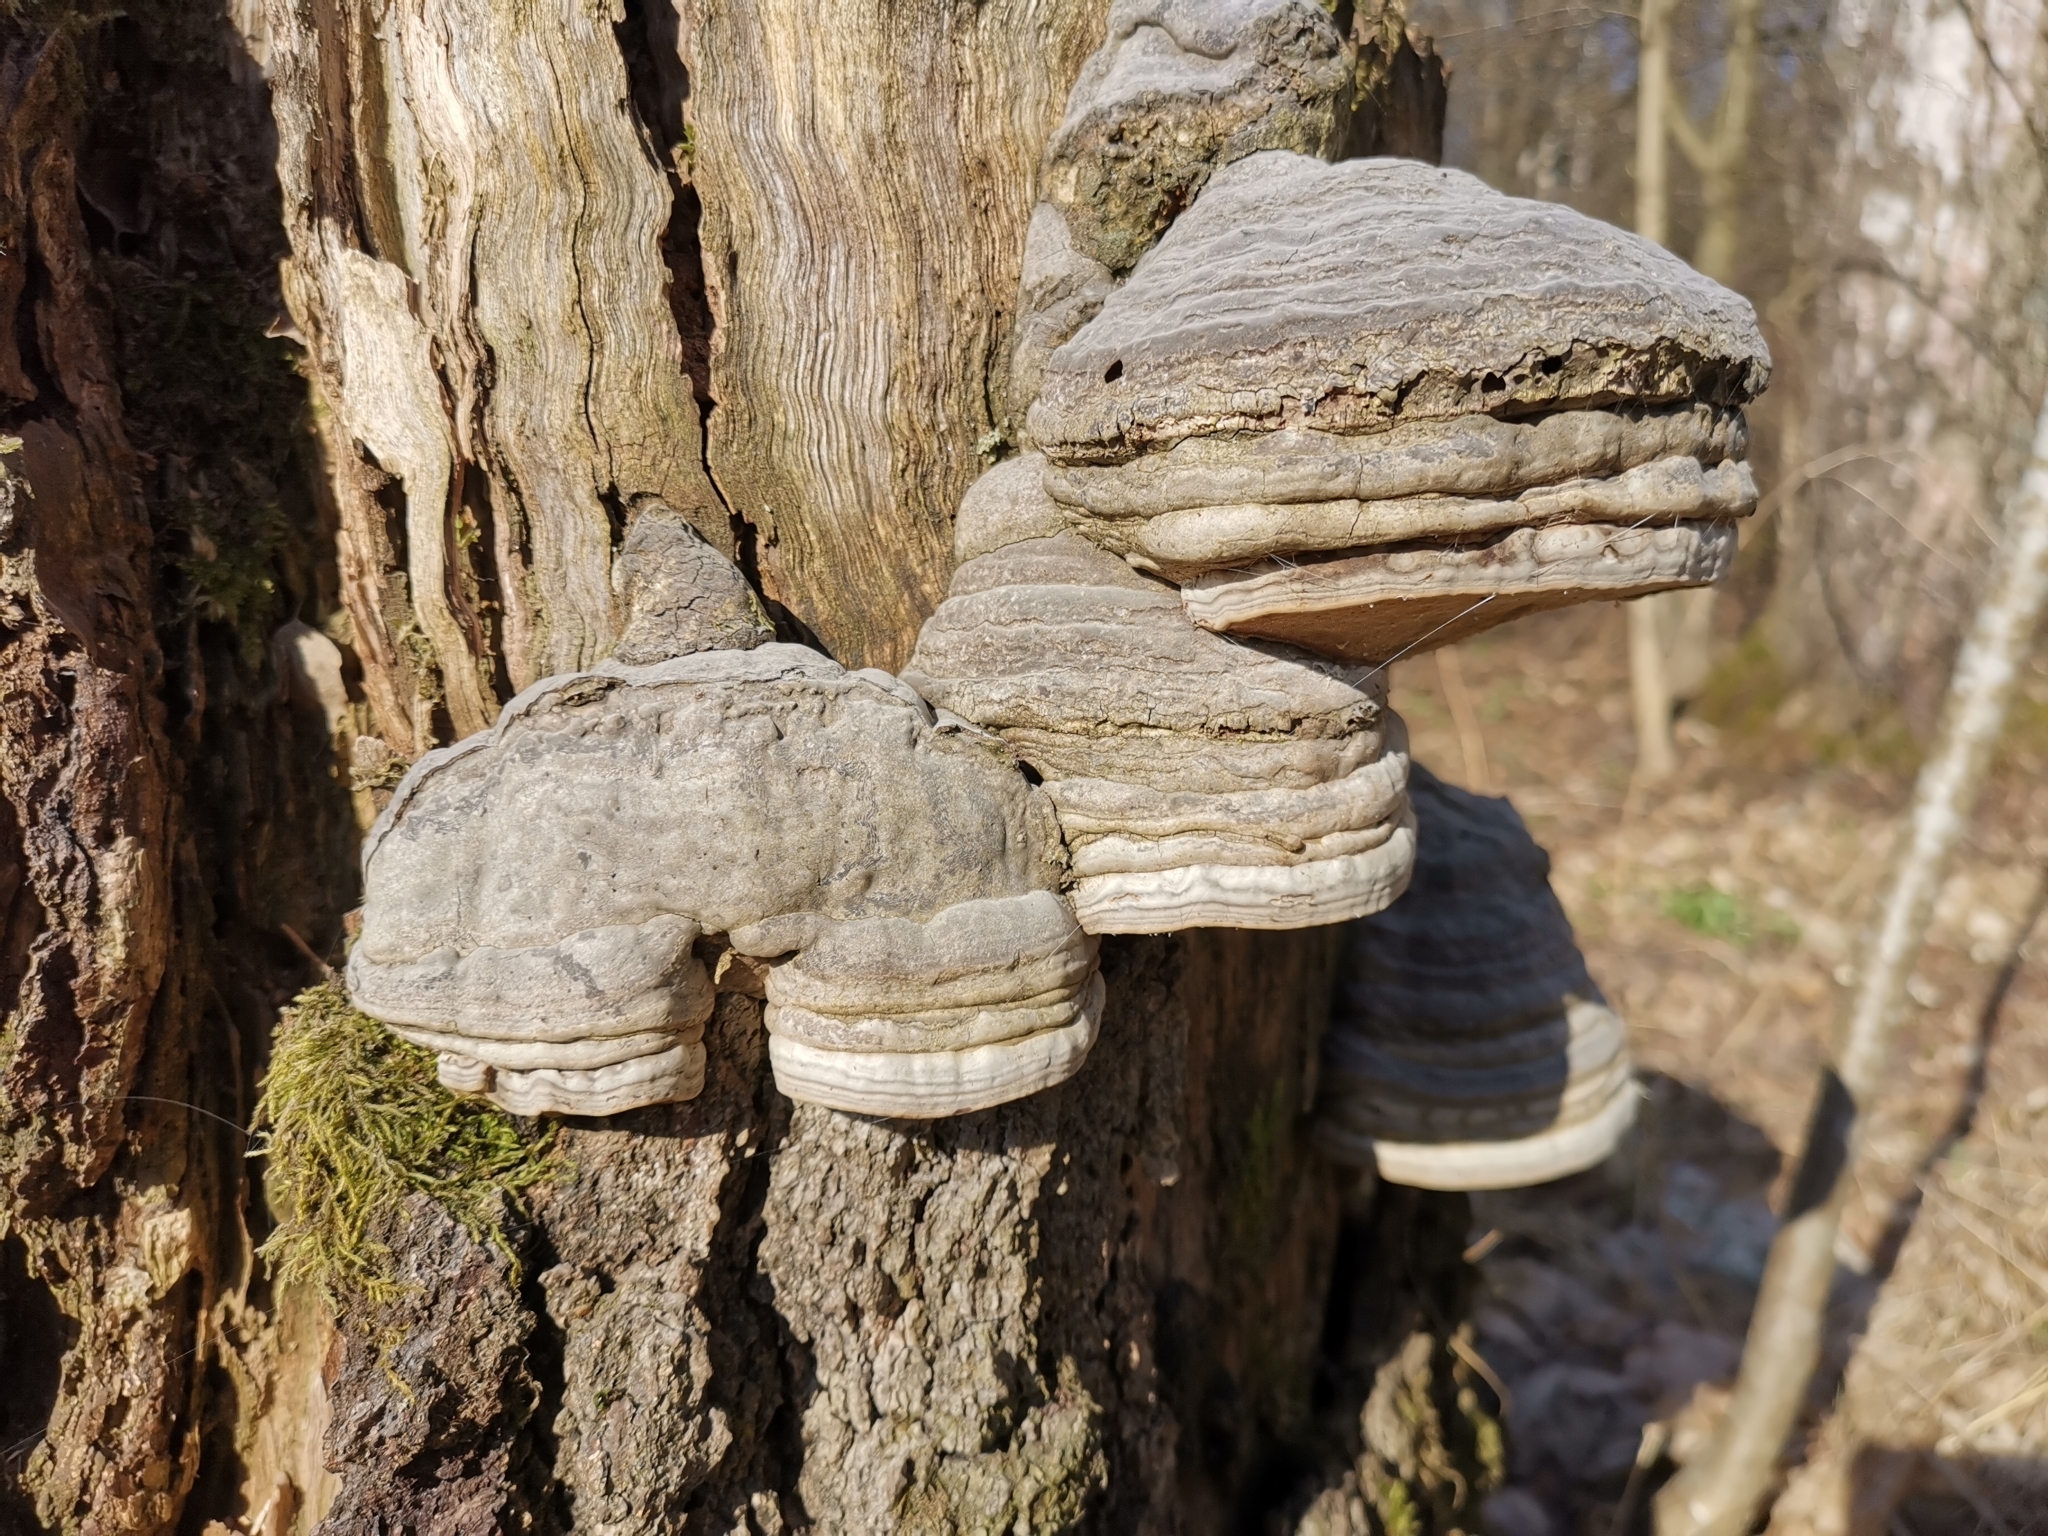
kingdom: Fungi
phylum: Basidiomycota
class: Agaricomycetes
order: Polyporales
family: Polyporaceae
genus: Fomes
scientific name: Fomes fomentarius
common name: Hoof fungus
